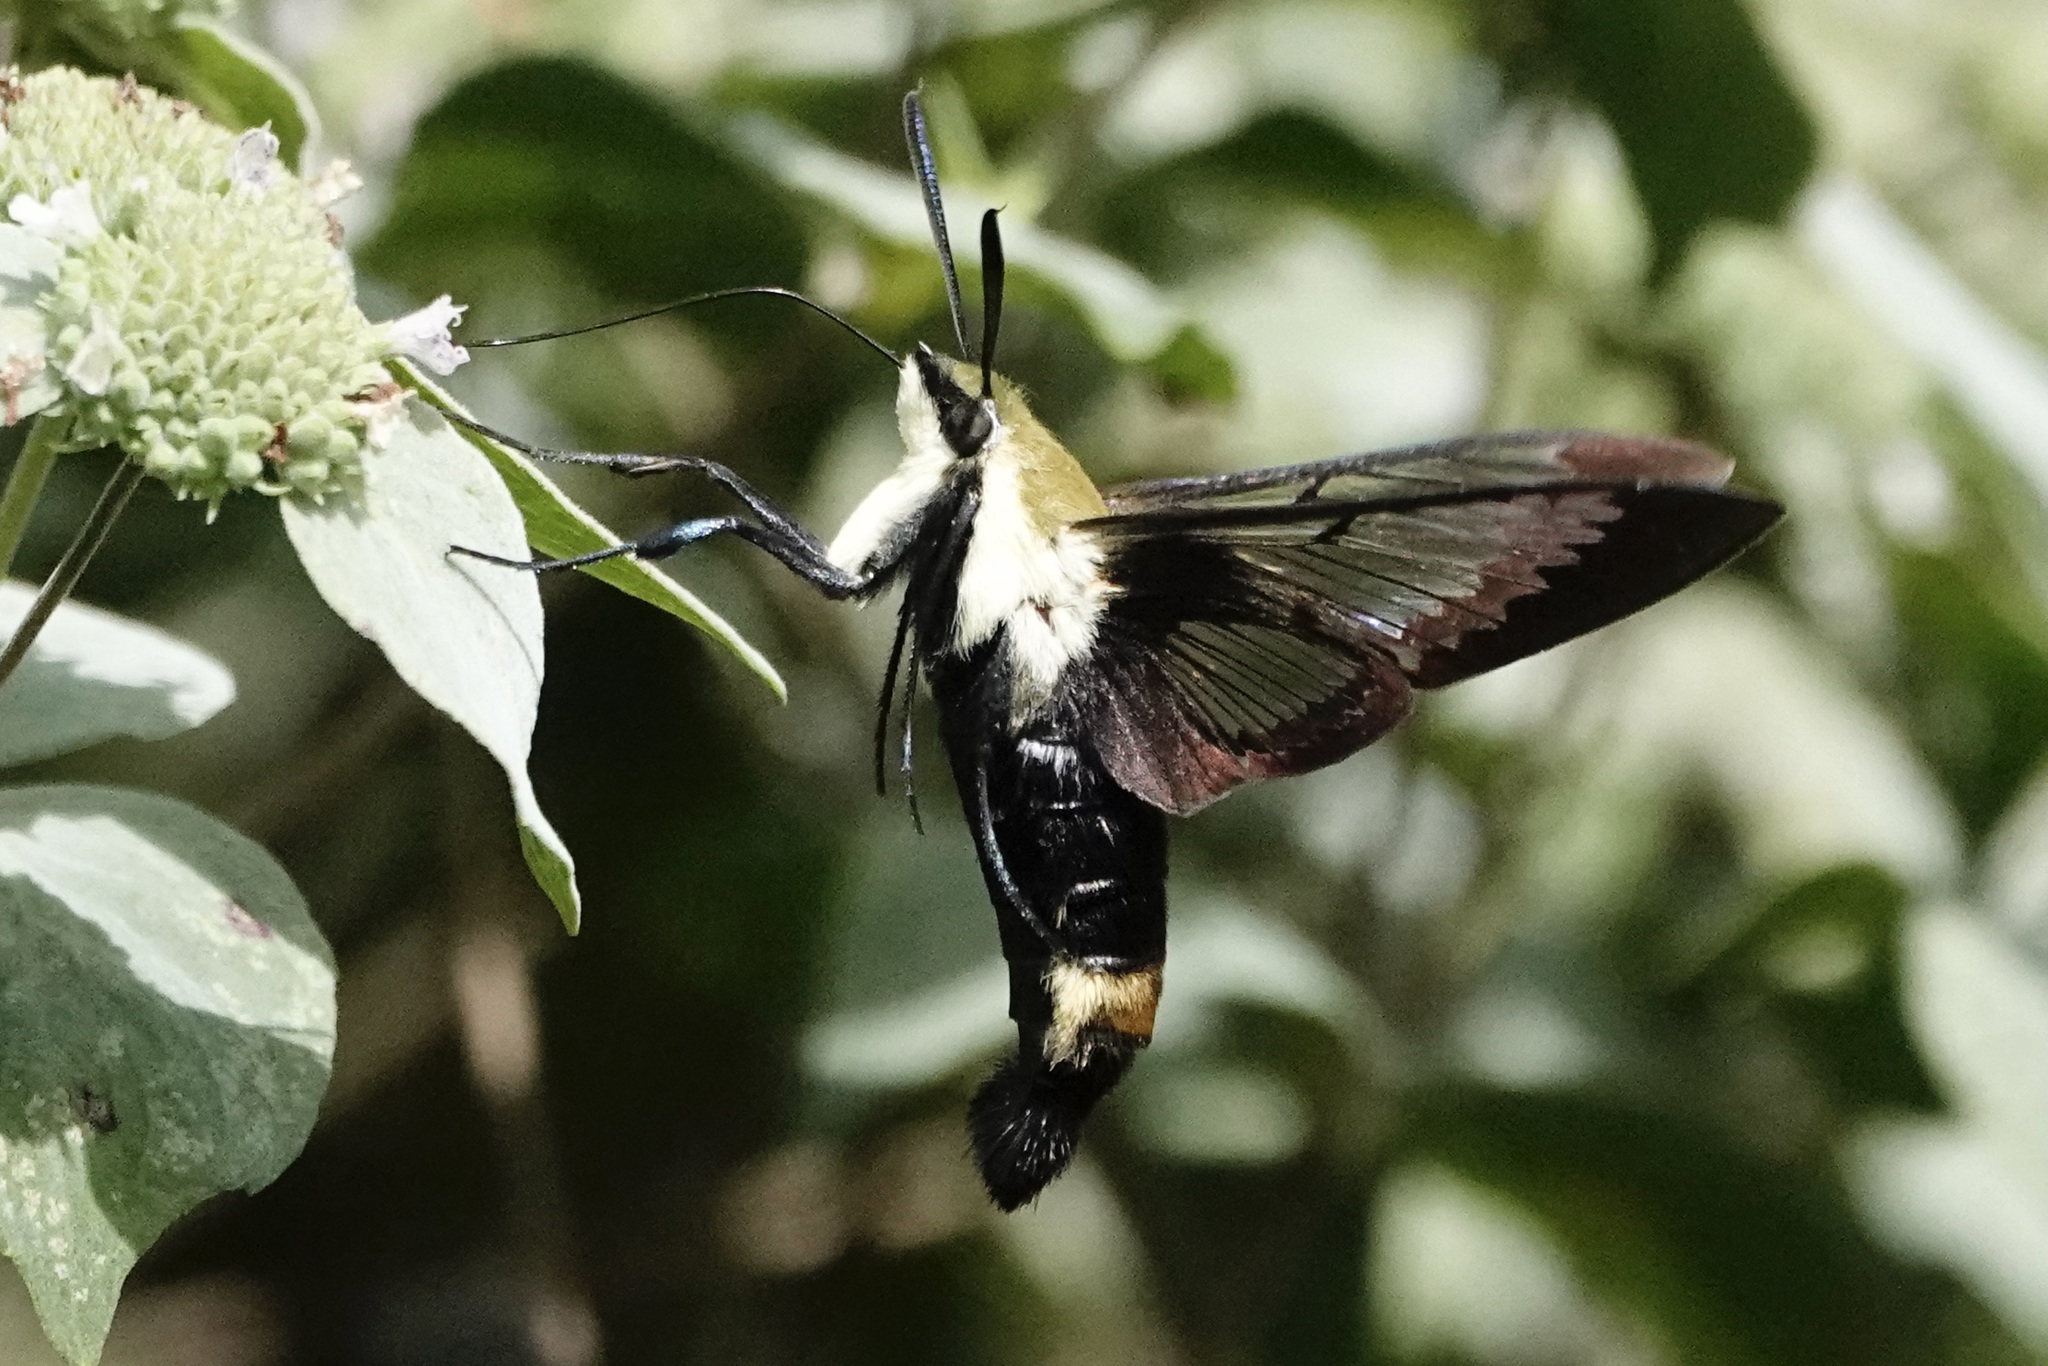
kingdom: Animalia
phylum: Arthropoda
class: Insecta
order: Lepidoptera
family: Sphingidae
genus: Hemaris
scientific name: Hemaris diffinis
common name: Bumblebee moth
